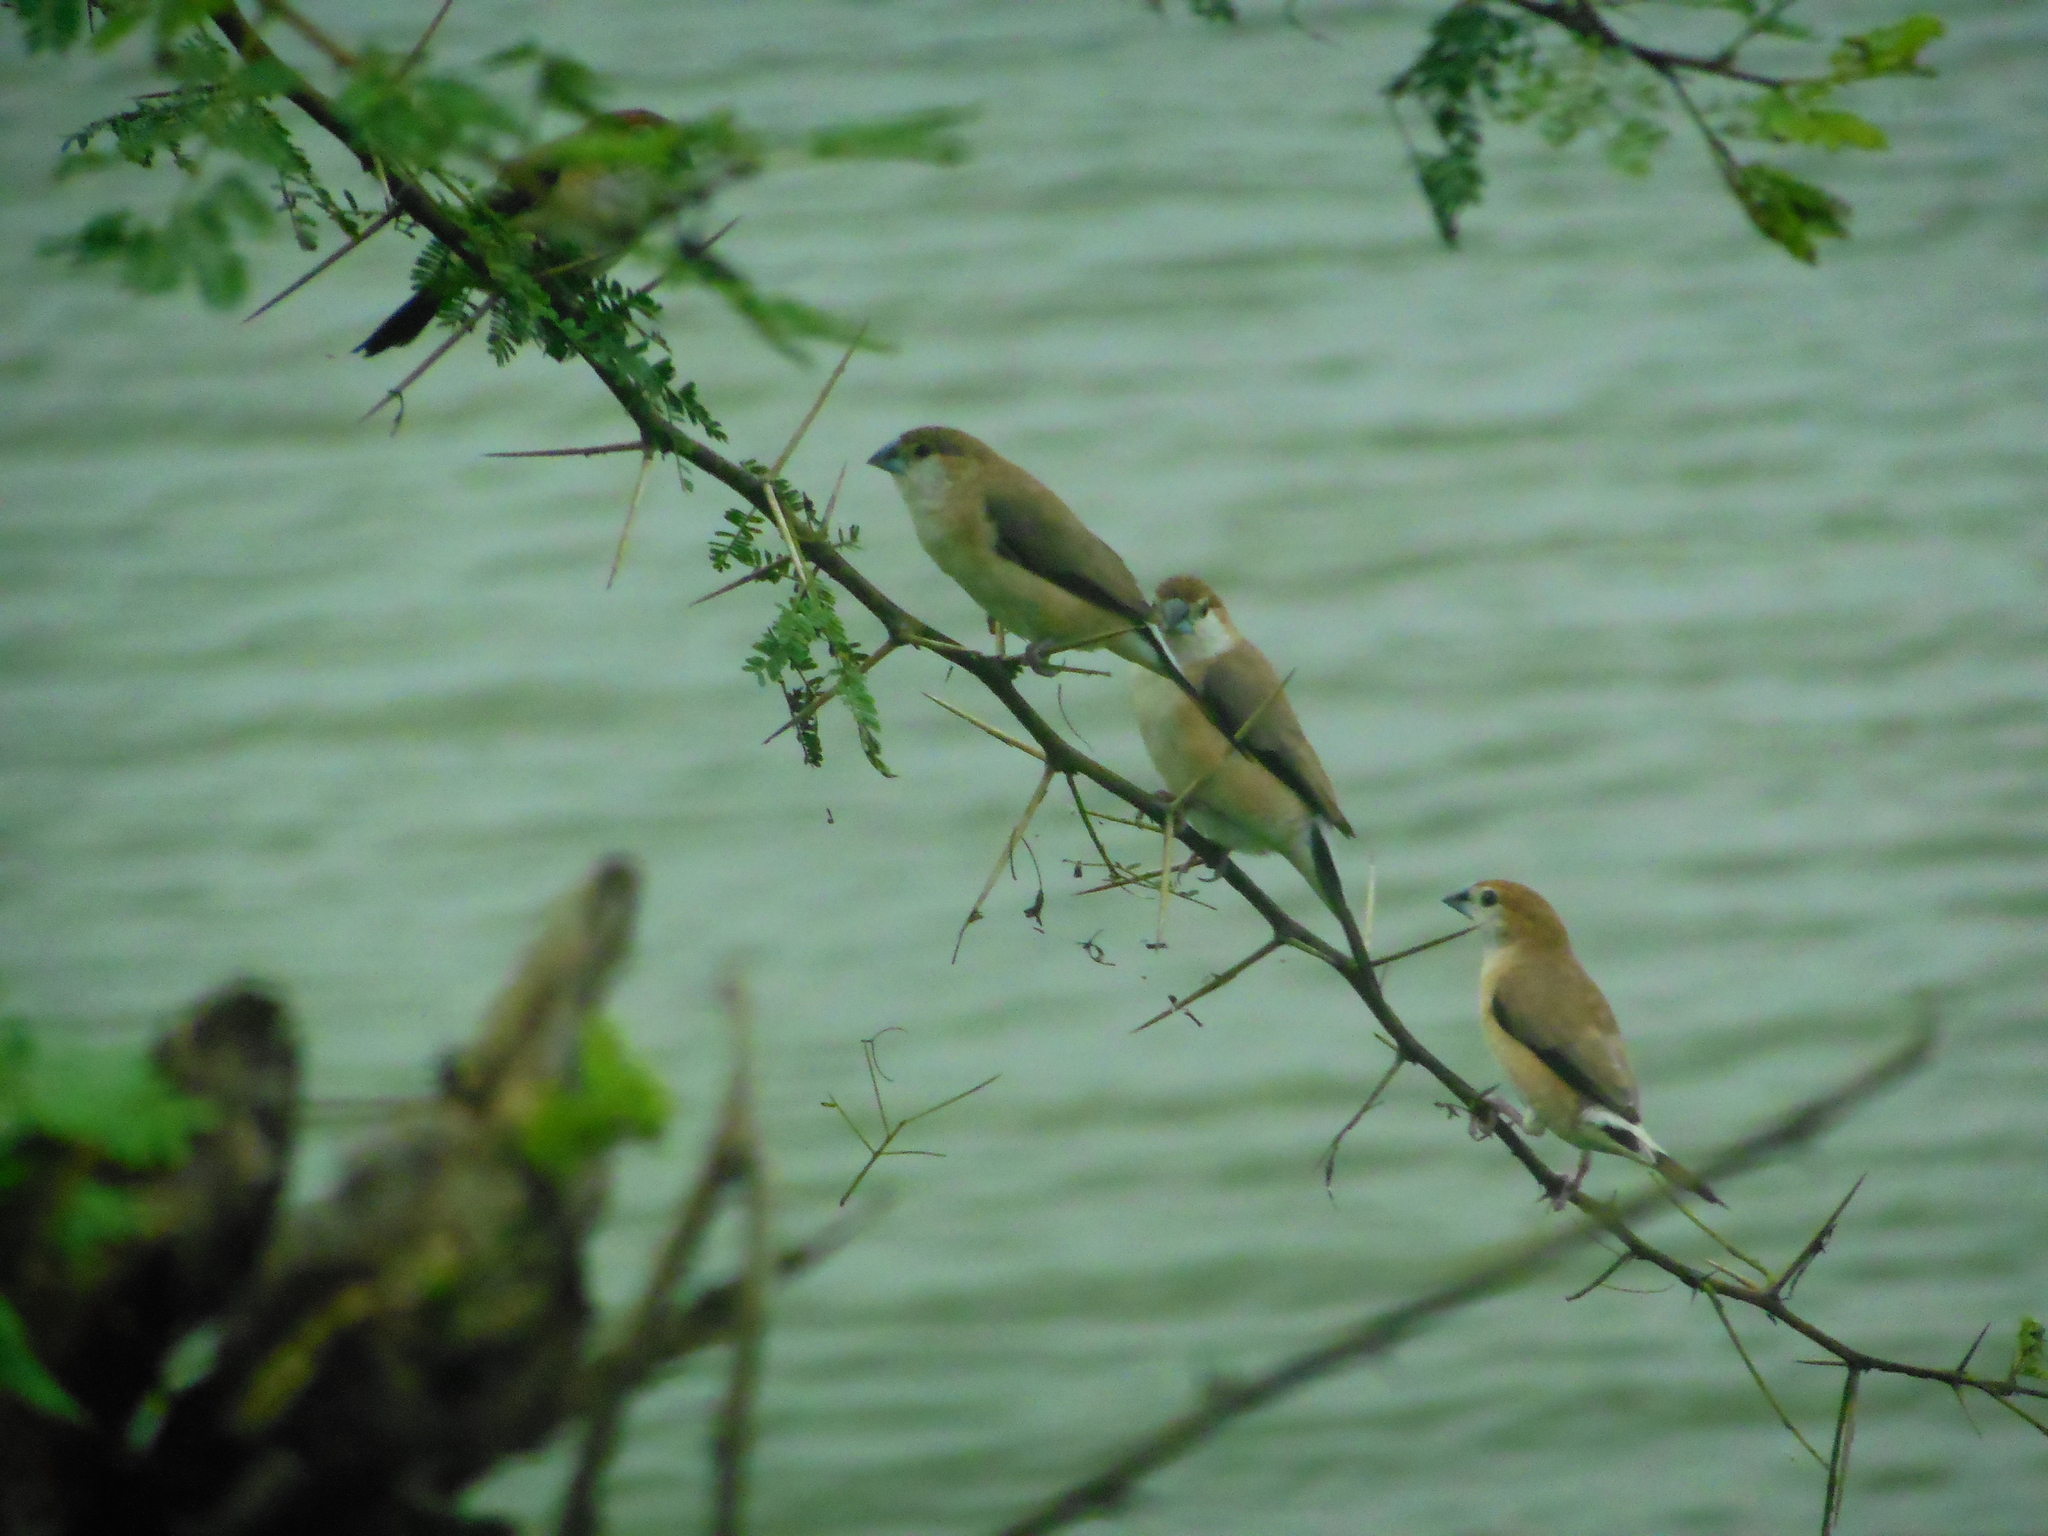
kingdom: Animalia
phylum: Chordata
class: Aves
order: Passeriformes
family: Estrildidae
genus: Euodice
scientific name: Euodice malabarica
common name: Indian silverbill
